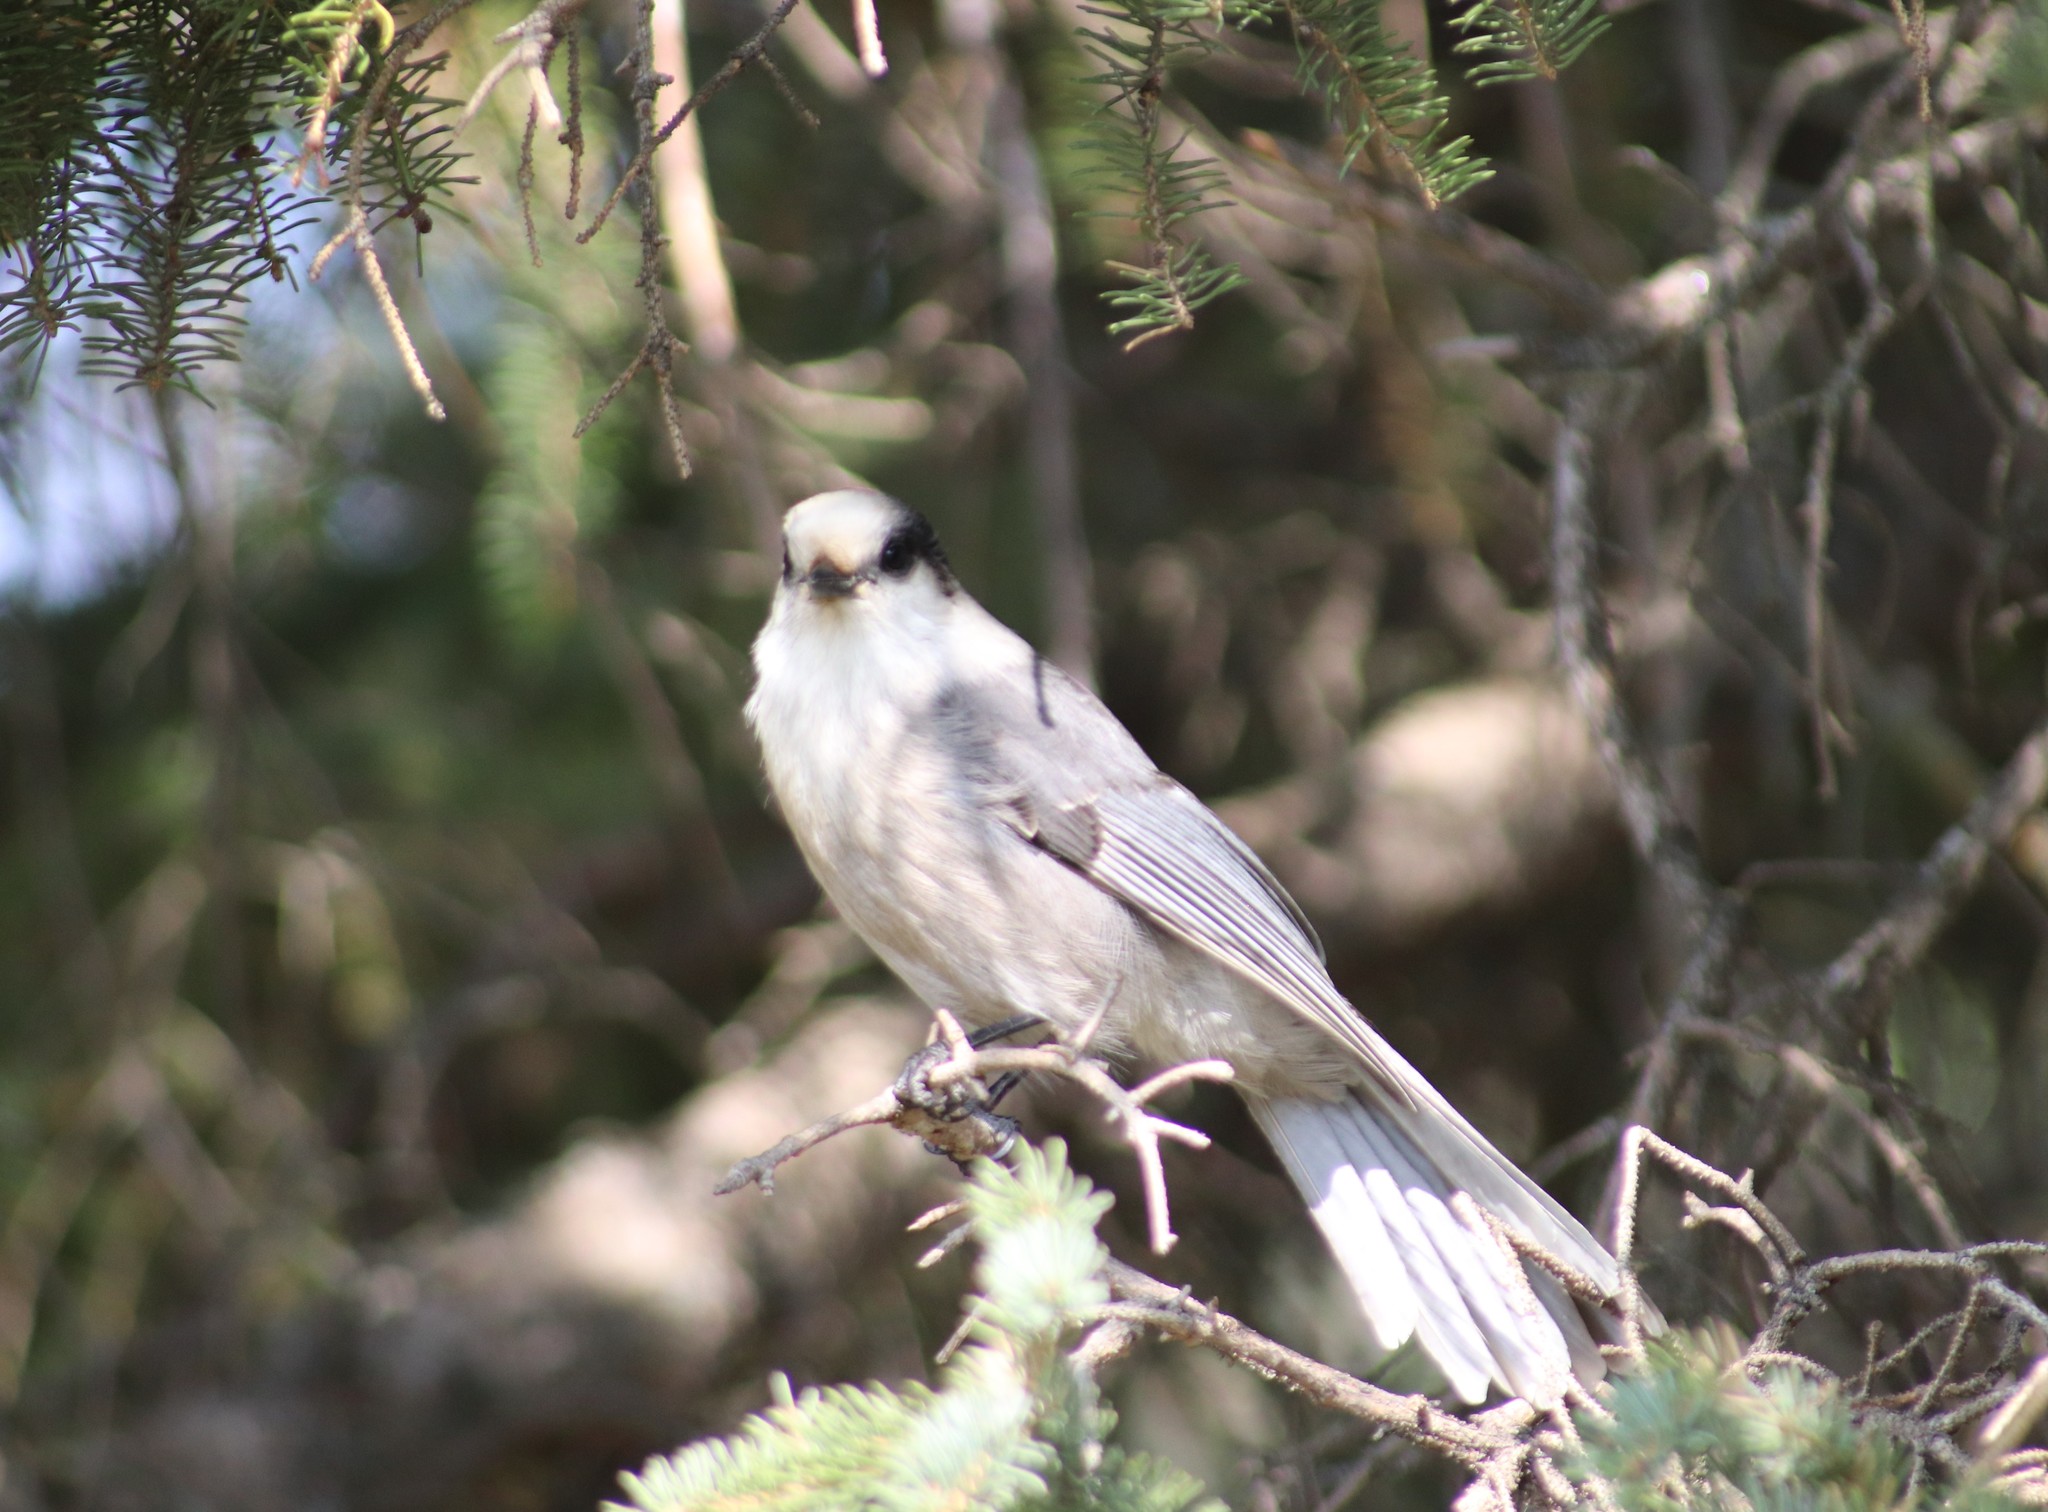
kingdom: Animalia
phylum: Chordata
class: Aves
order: Passeriformes
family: Corvidae
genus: Perisoreus
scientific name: Perisoreus canadensis
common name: Gray jay
